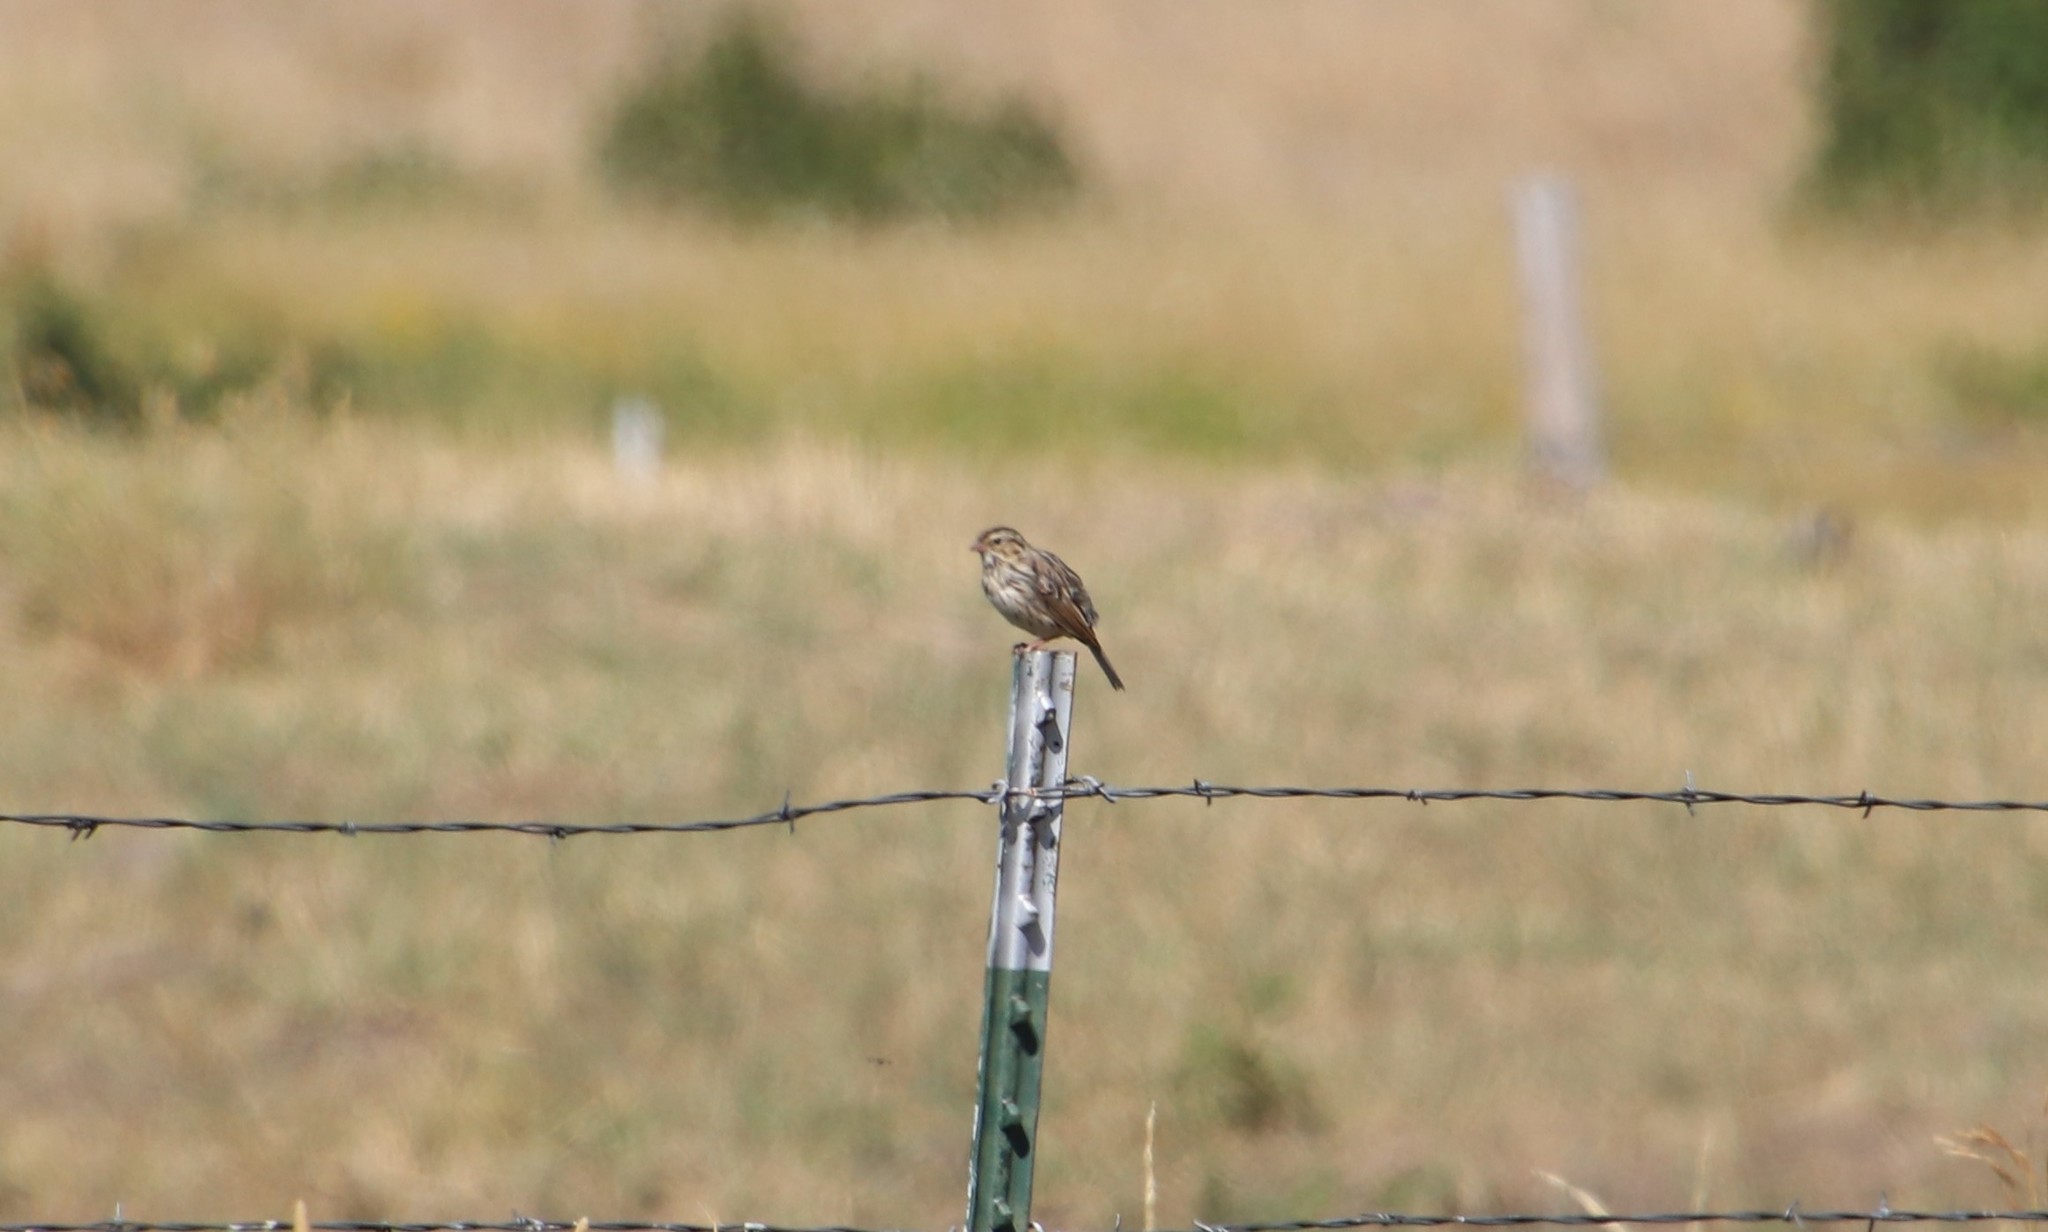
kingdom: Animalia
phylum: Chordata
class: Aves
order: Passeriformes
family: Passerellidae
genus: Passerculus
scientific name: Passerculus sandwichensis
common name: Savannah sparrow
